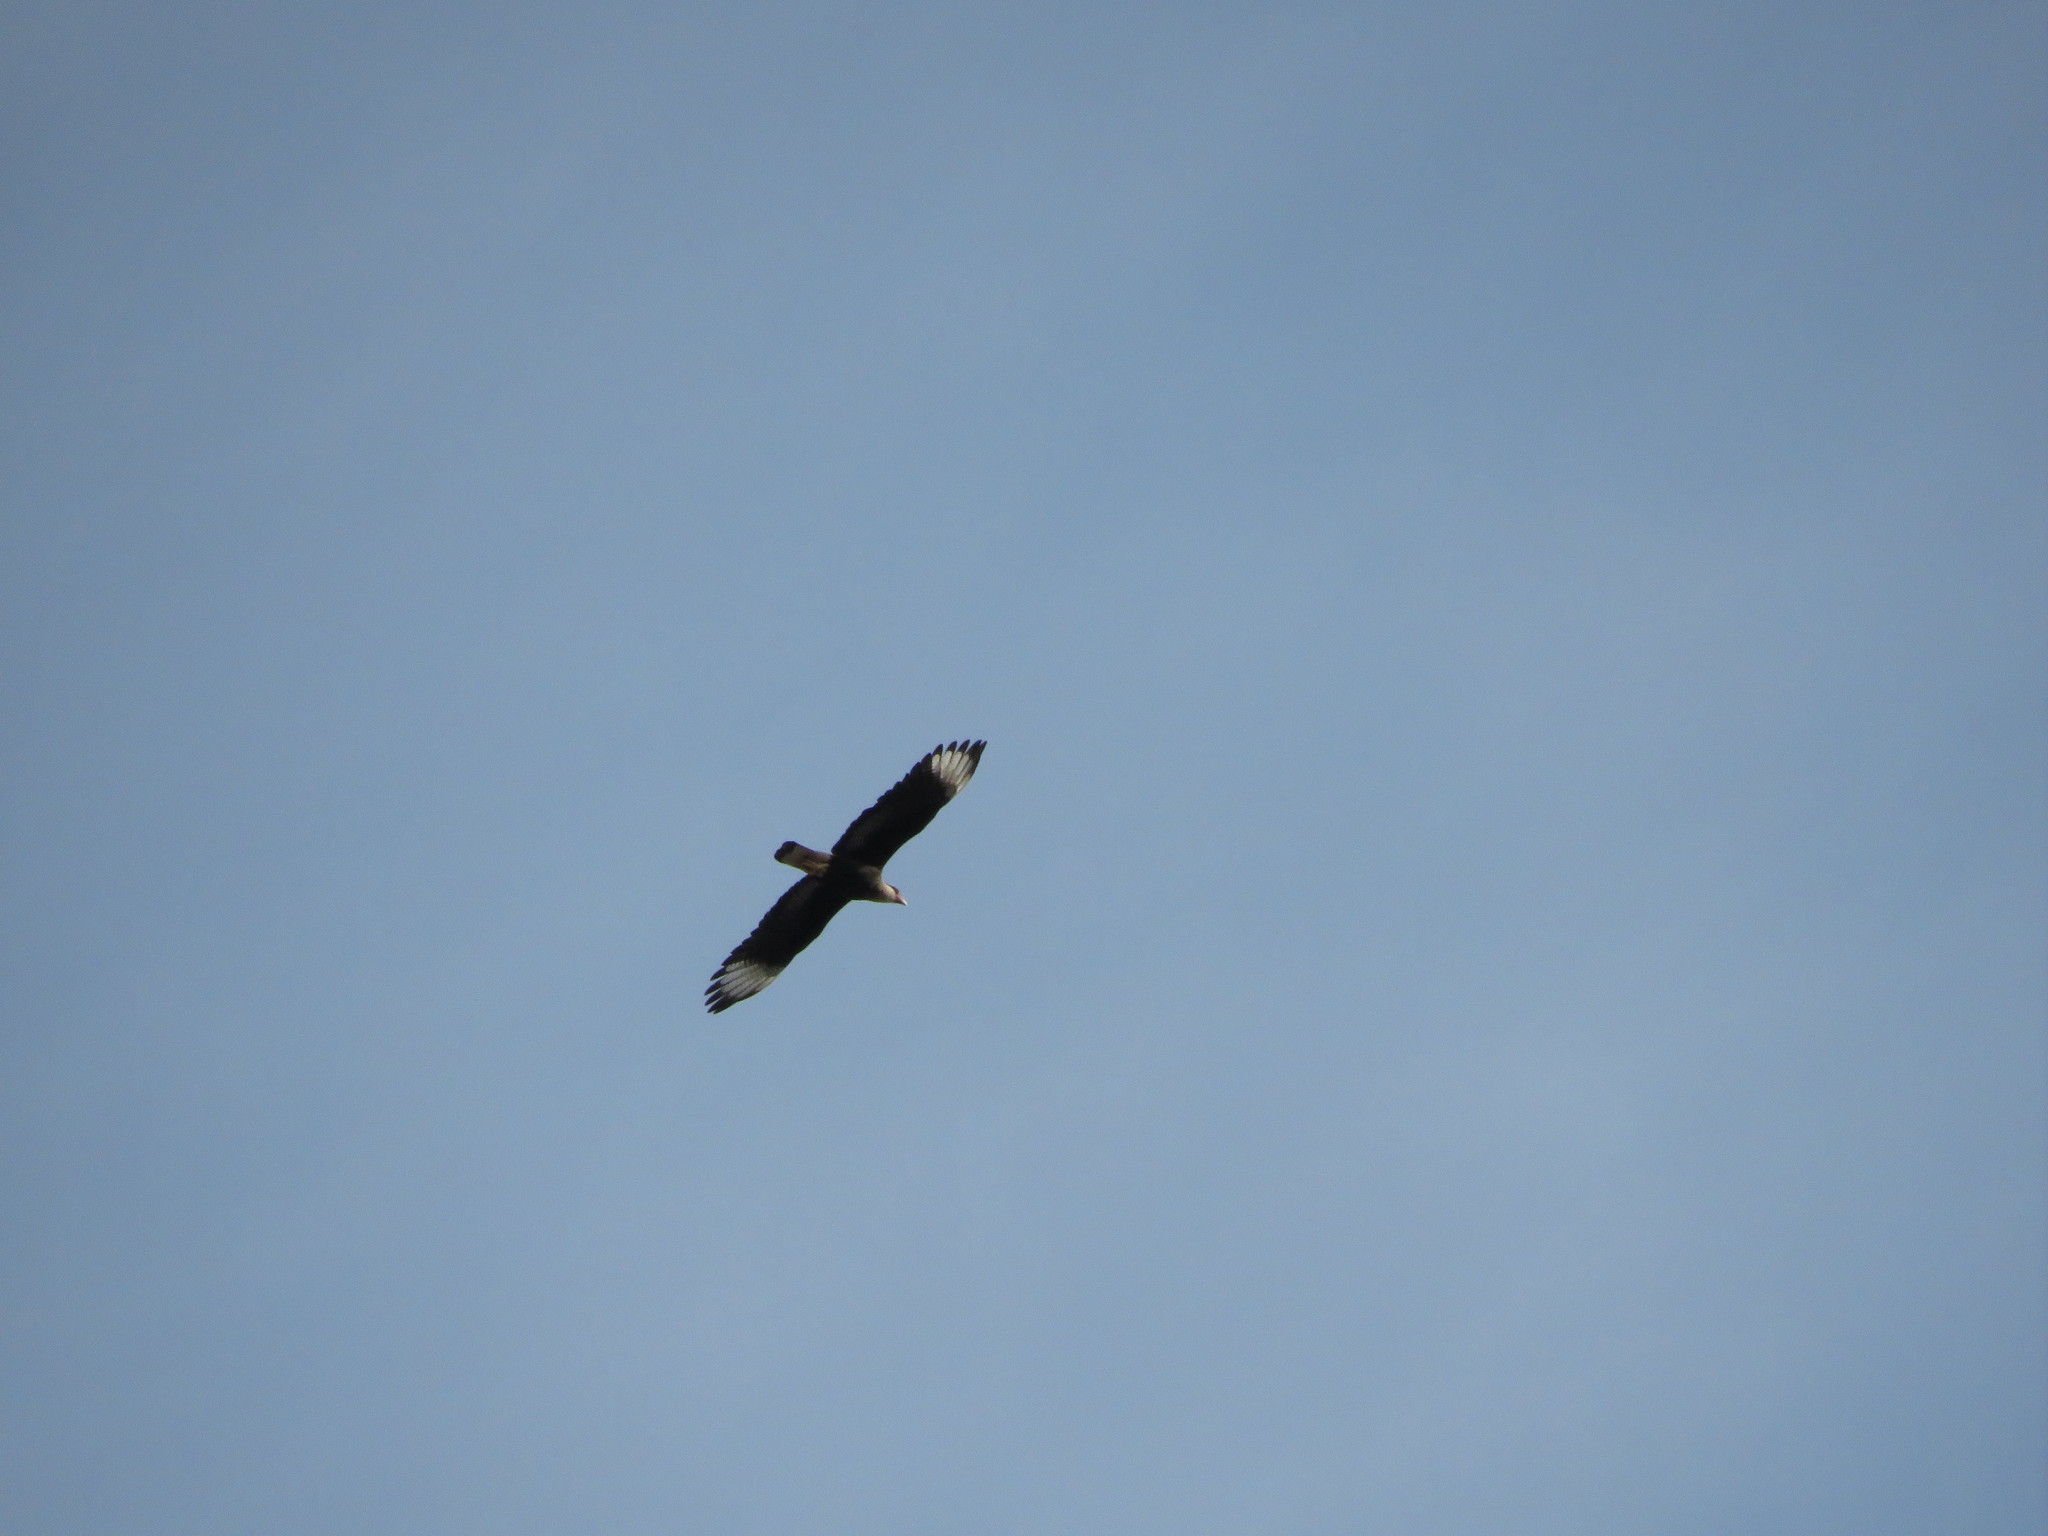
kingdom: Animalia
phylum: Chordata
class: Aves
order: Falconiformes
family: Falconidae
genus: Caracara
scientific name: Caracara plancus
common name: Southern caracara
